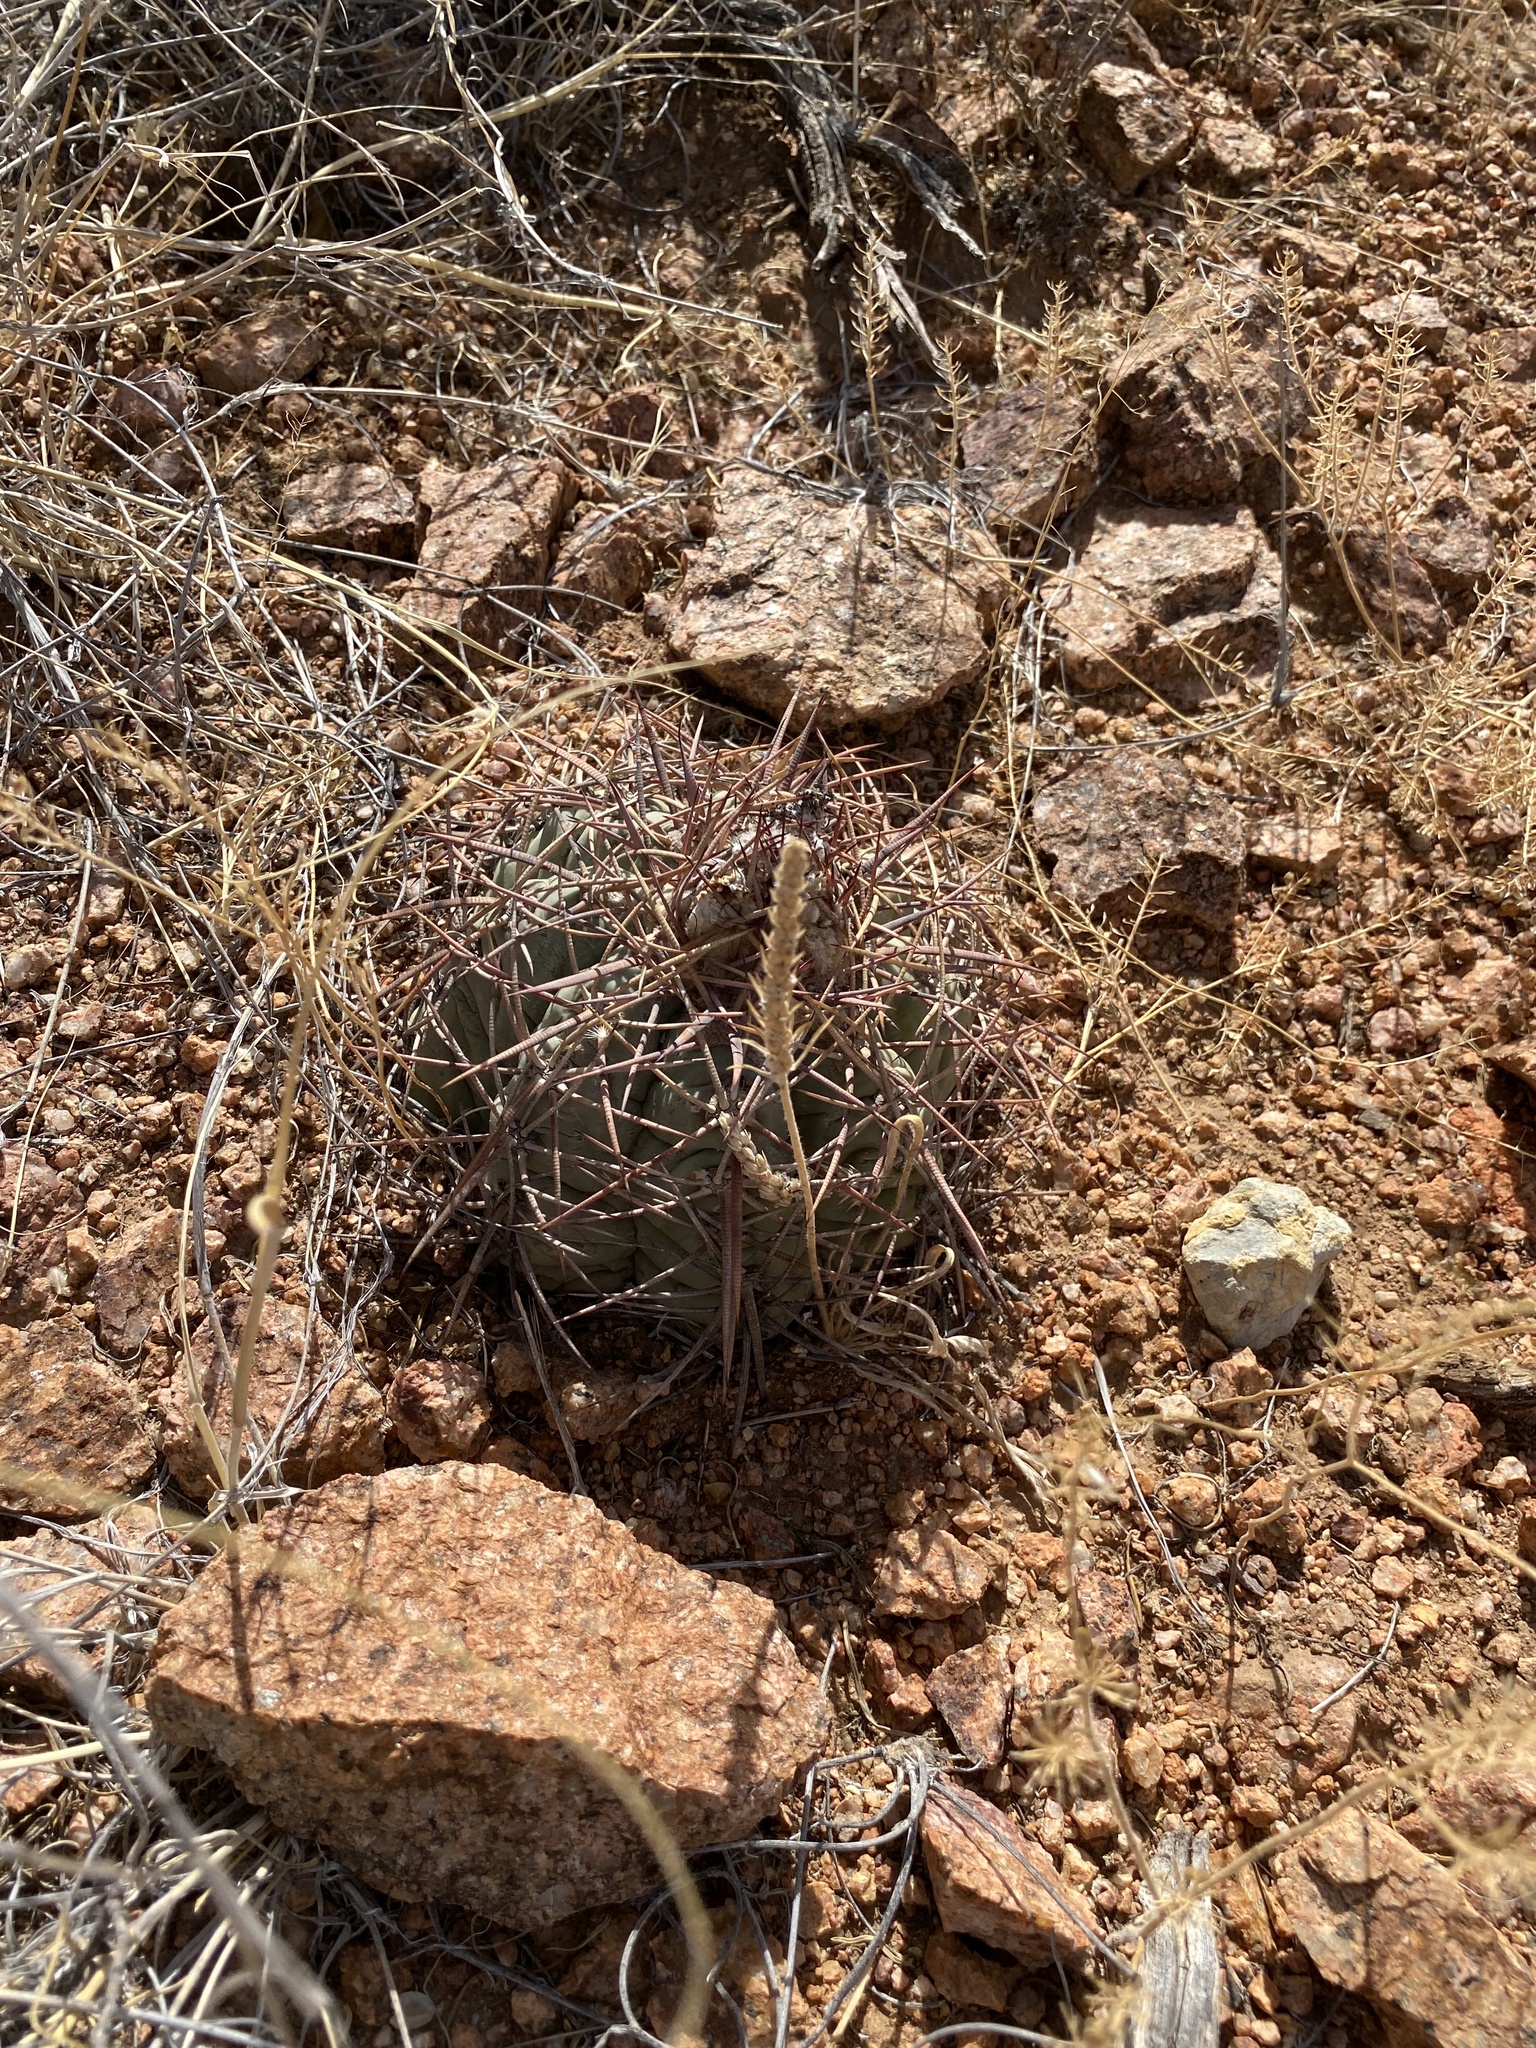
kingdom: Plantae
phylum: Tracheophyta
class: Magnoliopsida
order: Caryophyllales
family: Cactaceae
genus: Echinocactus
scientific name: Echinocactus horizonthalonius
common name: Devilshead
